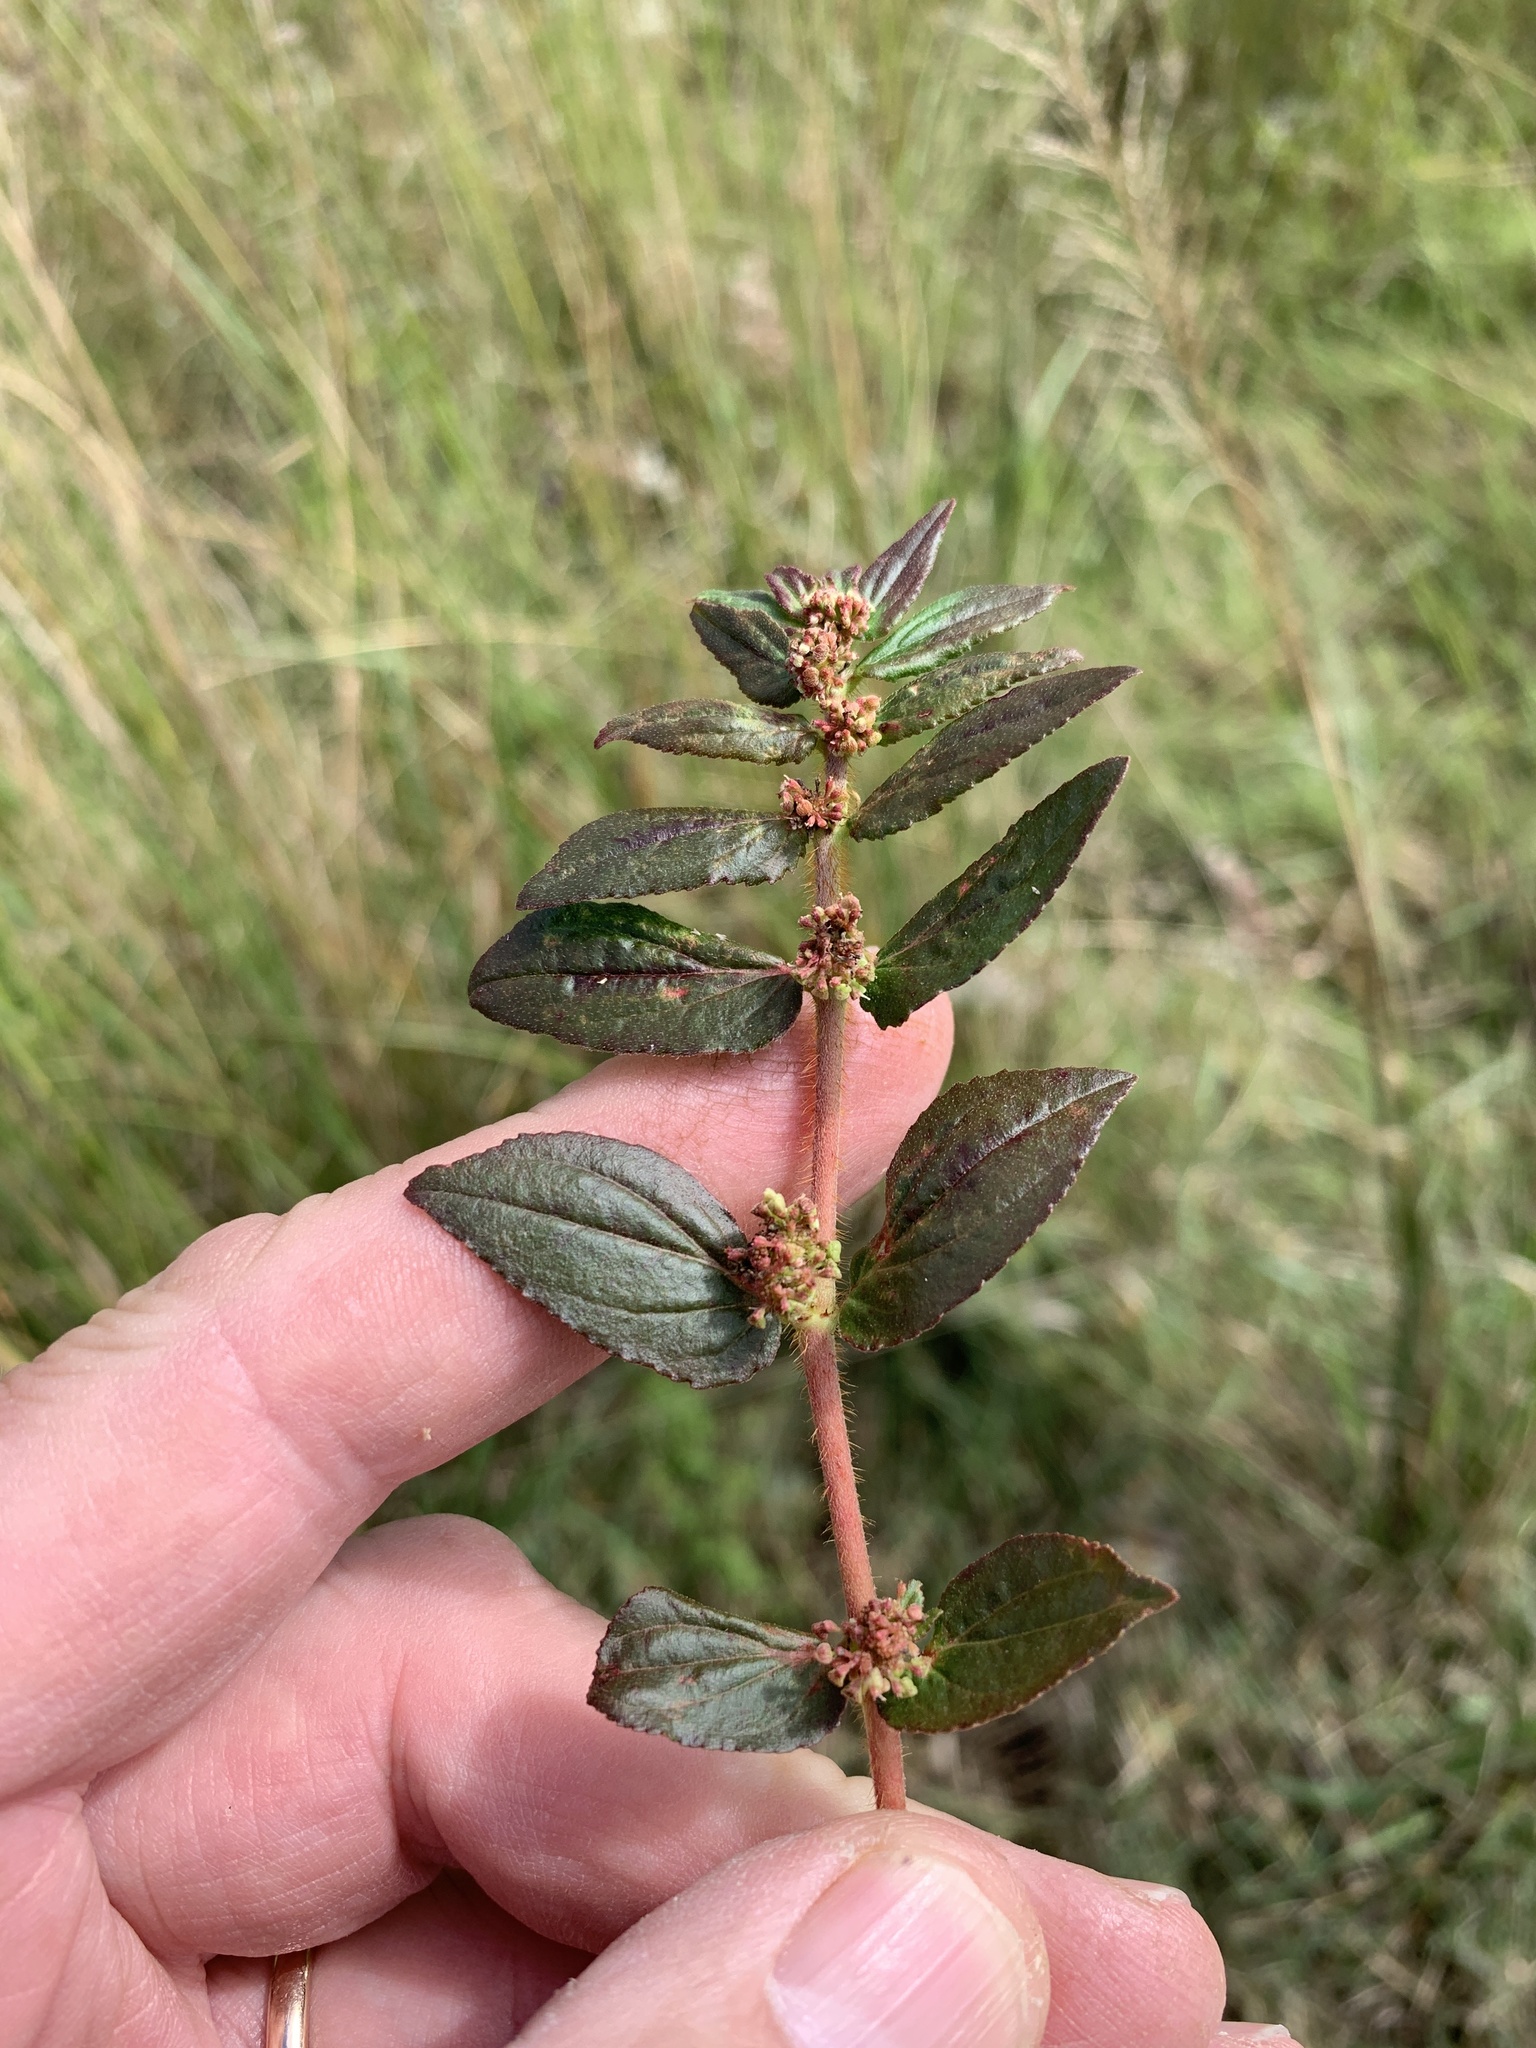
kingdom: Plantae
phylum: Tracheophyta
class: Magnoliopsida
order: Malpighiales
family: Euphorbiaceae
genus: Euphorbia
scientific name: Euphorbia hirta
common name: Pillpod sandmat
